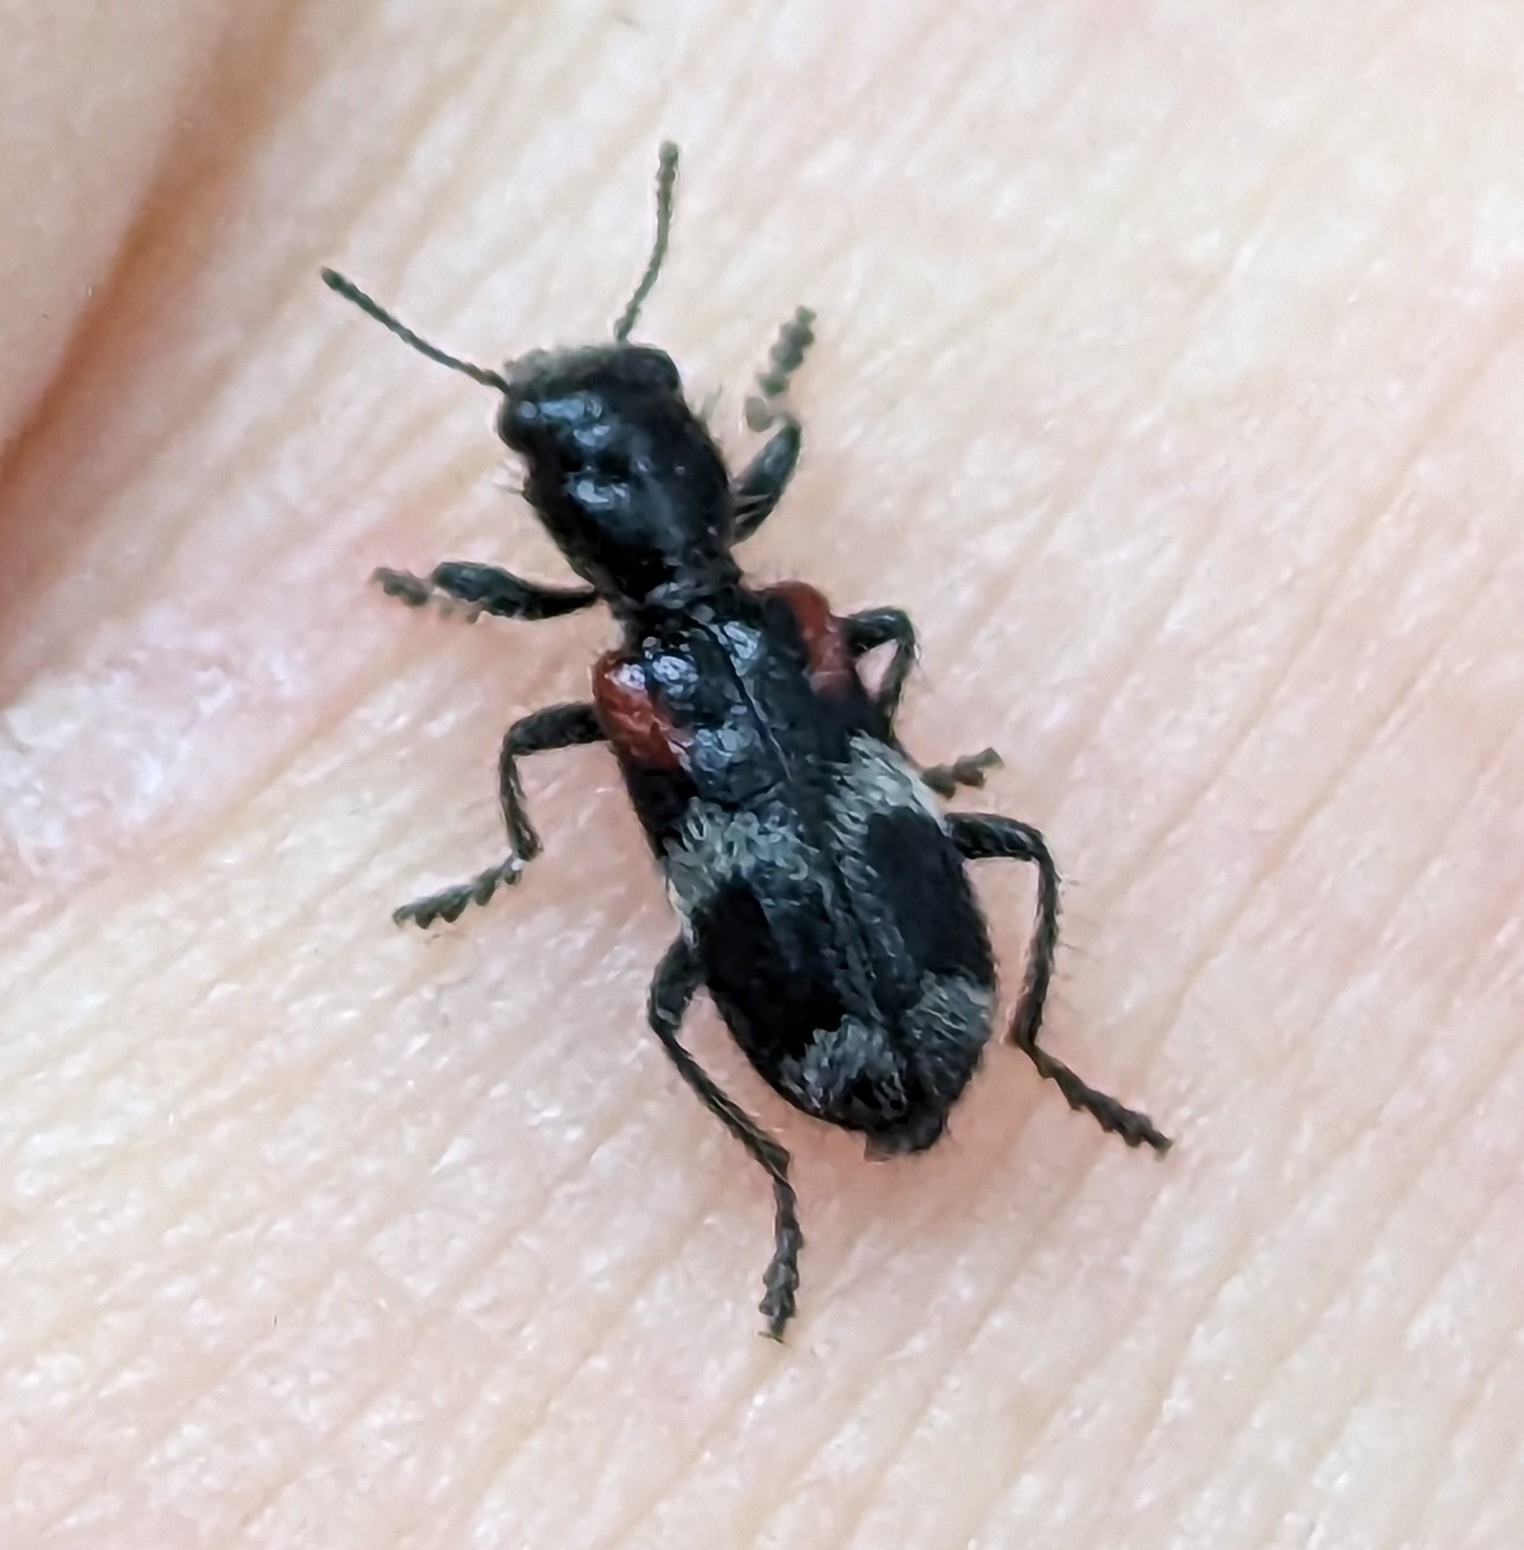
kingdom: Animalia
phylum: Arthropoda
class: Insecta
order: Coleoptera
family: Cleridae
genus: Enoclerus
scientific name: Enoclerus schaefferi
